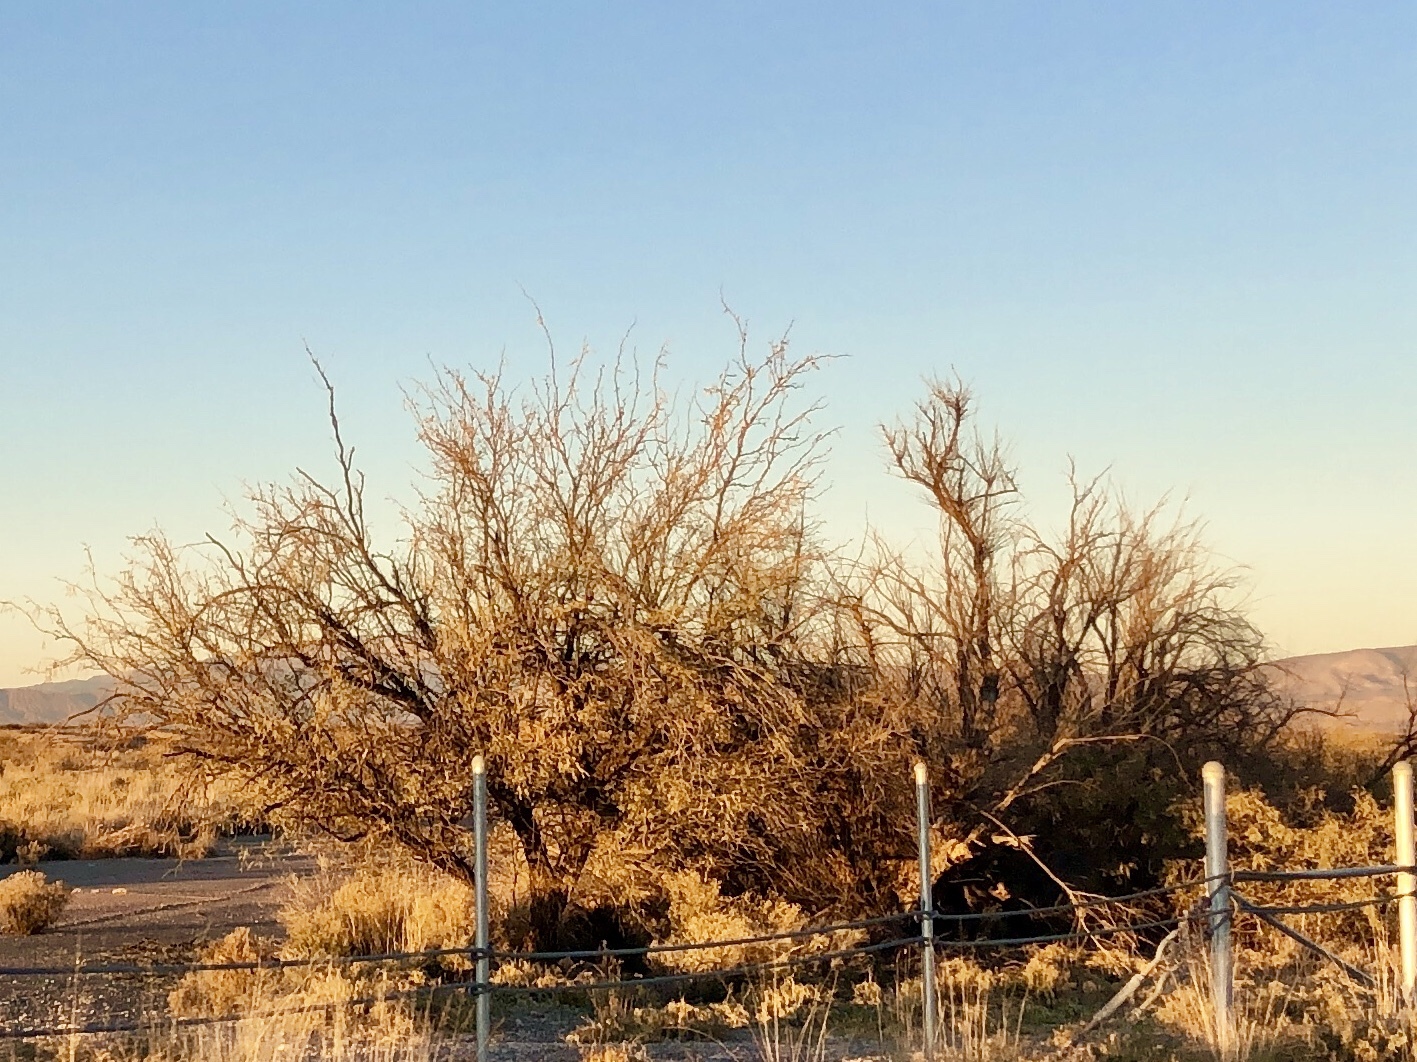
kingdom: Plantae
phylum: Tracheophyta
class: Magnoliopsida
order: Fabales
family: Fabaceae
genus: Prosopis
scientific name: Prosopis glandulosa
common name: Honey mesquite
